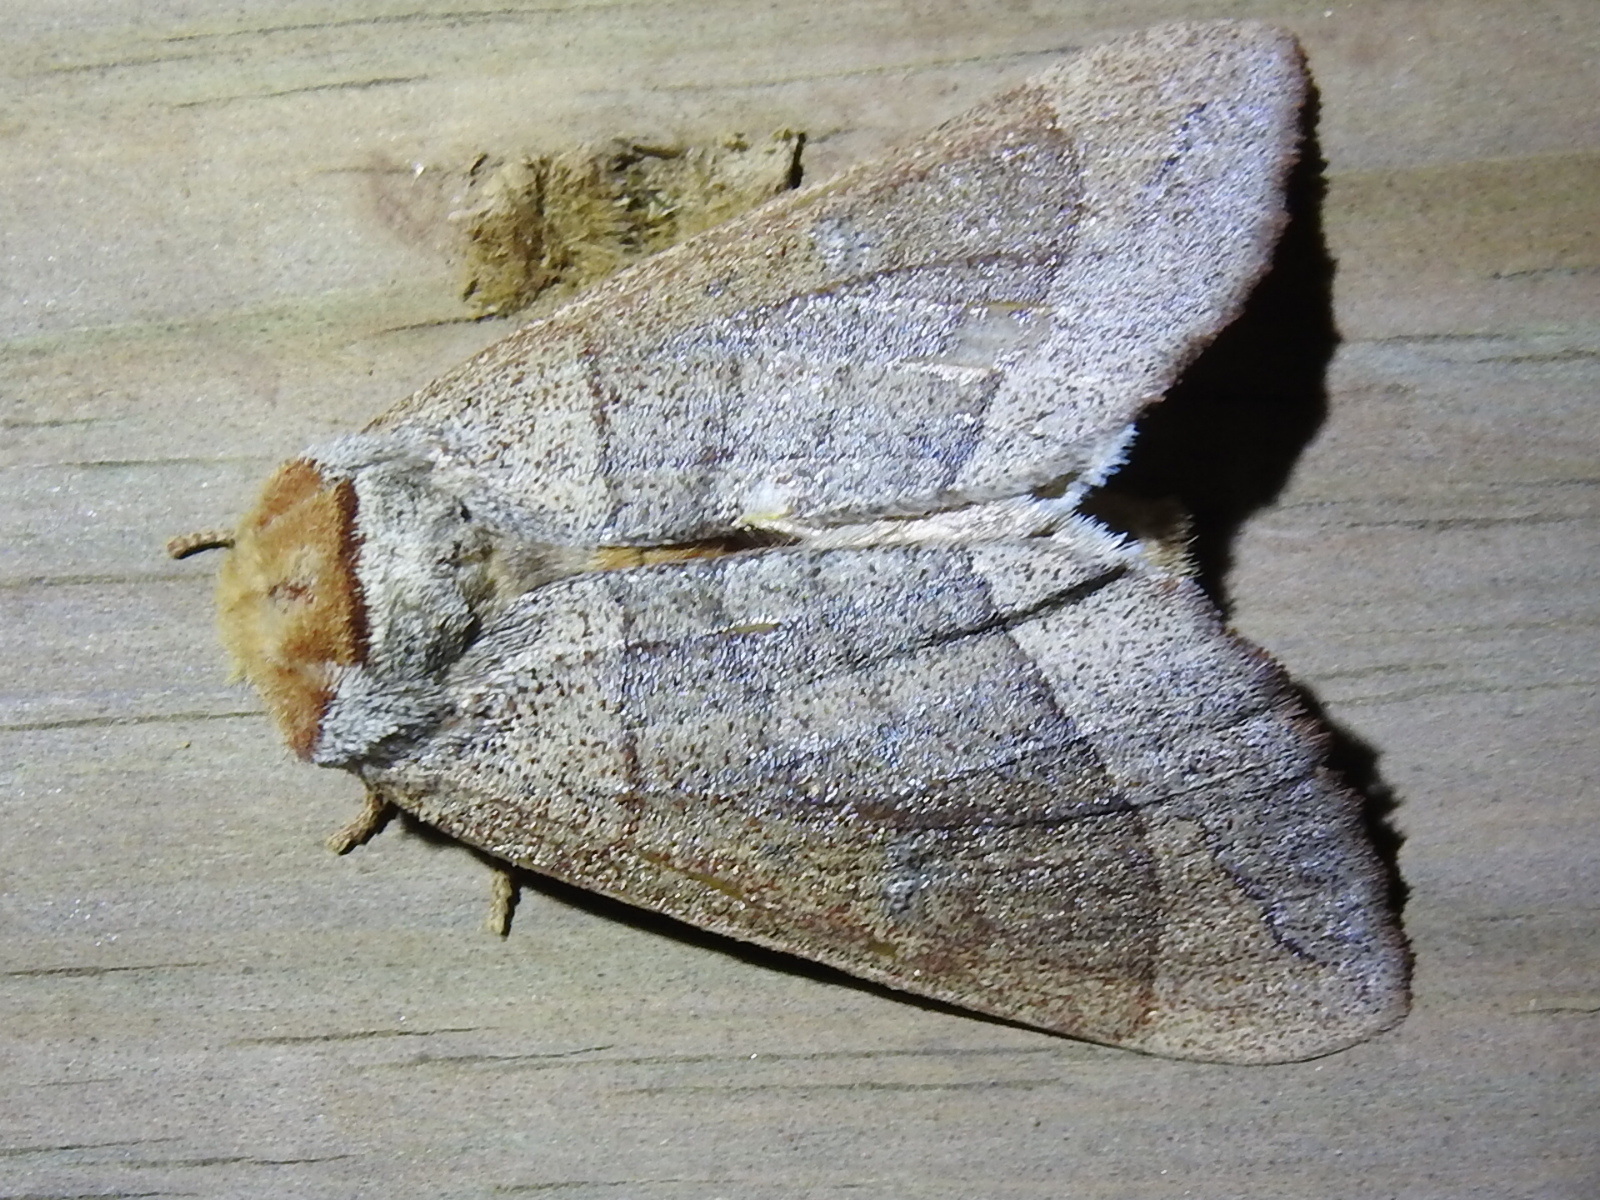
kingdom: Animalia
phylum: Arthropoda
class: Insecta
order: Lepidoptera
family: Notodontidae
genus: Datana
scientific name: Datana ministra
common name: Yellow-necked caterpillar moth
